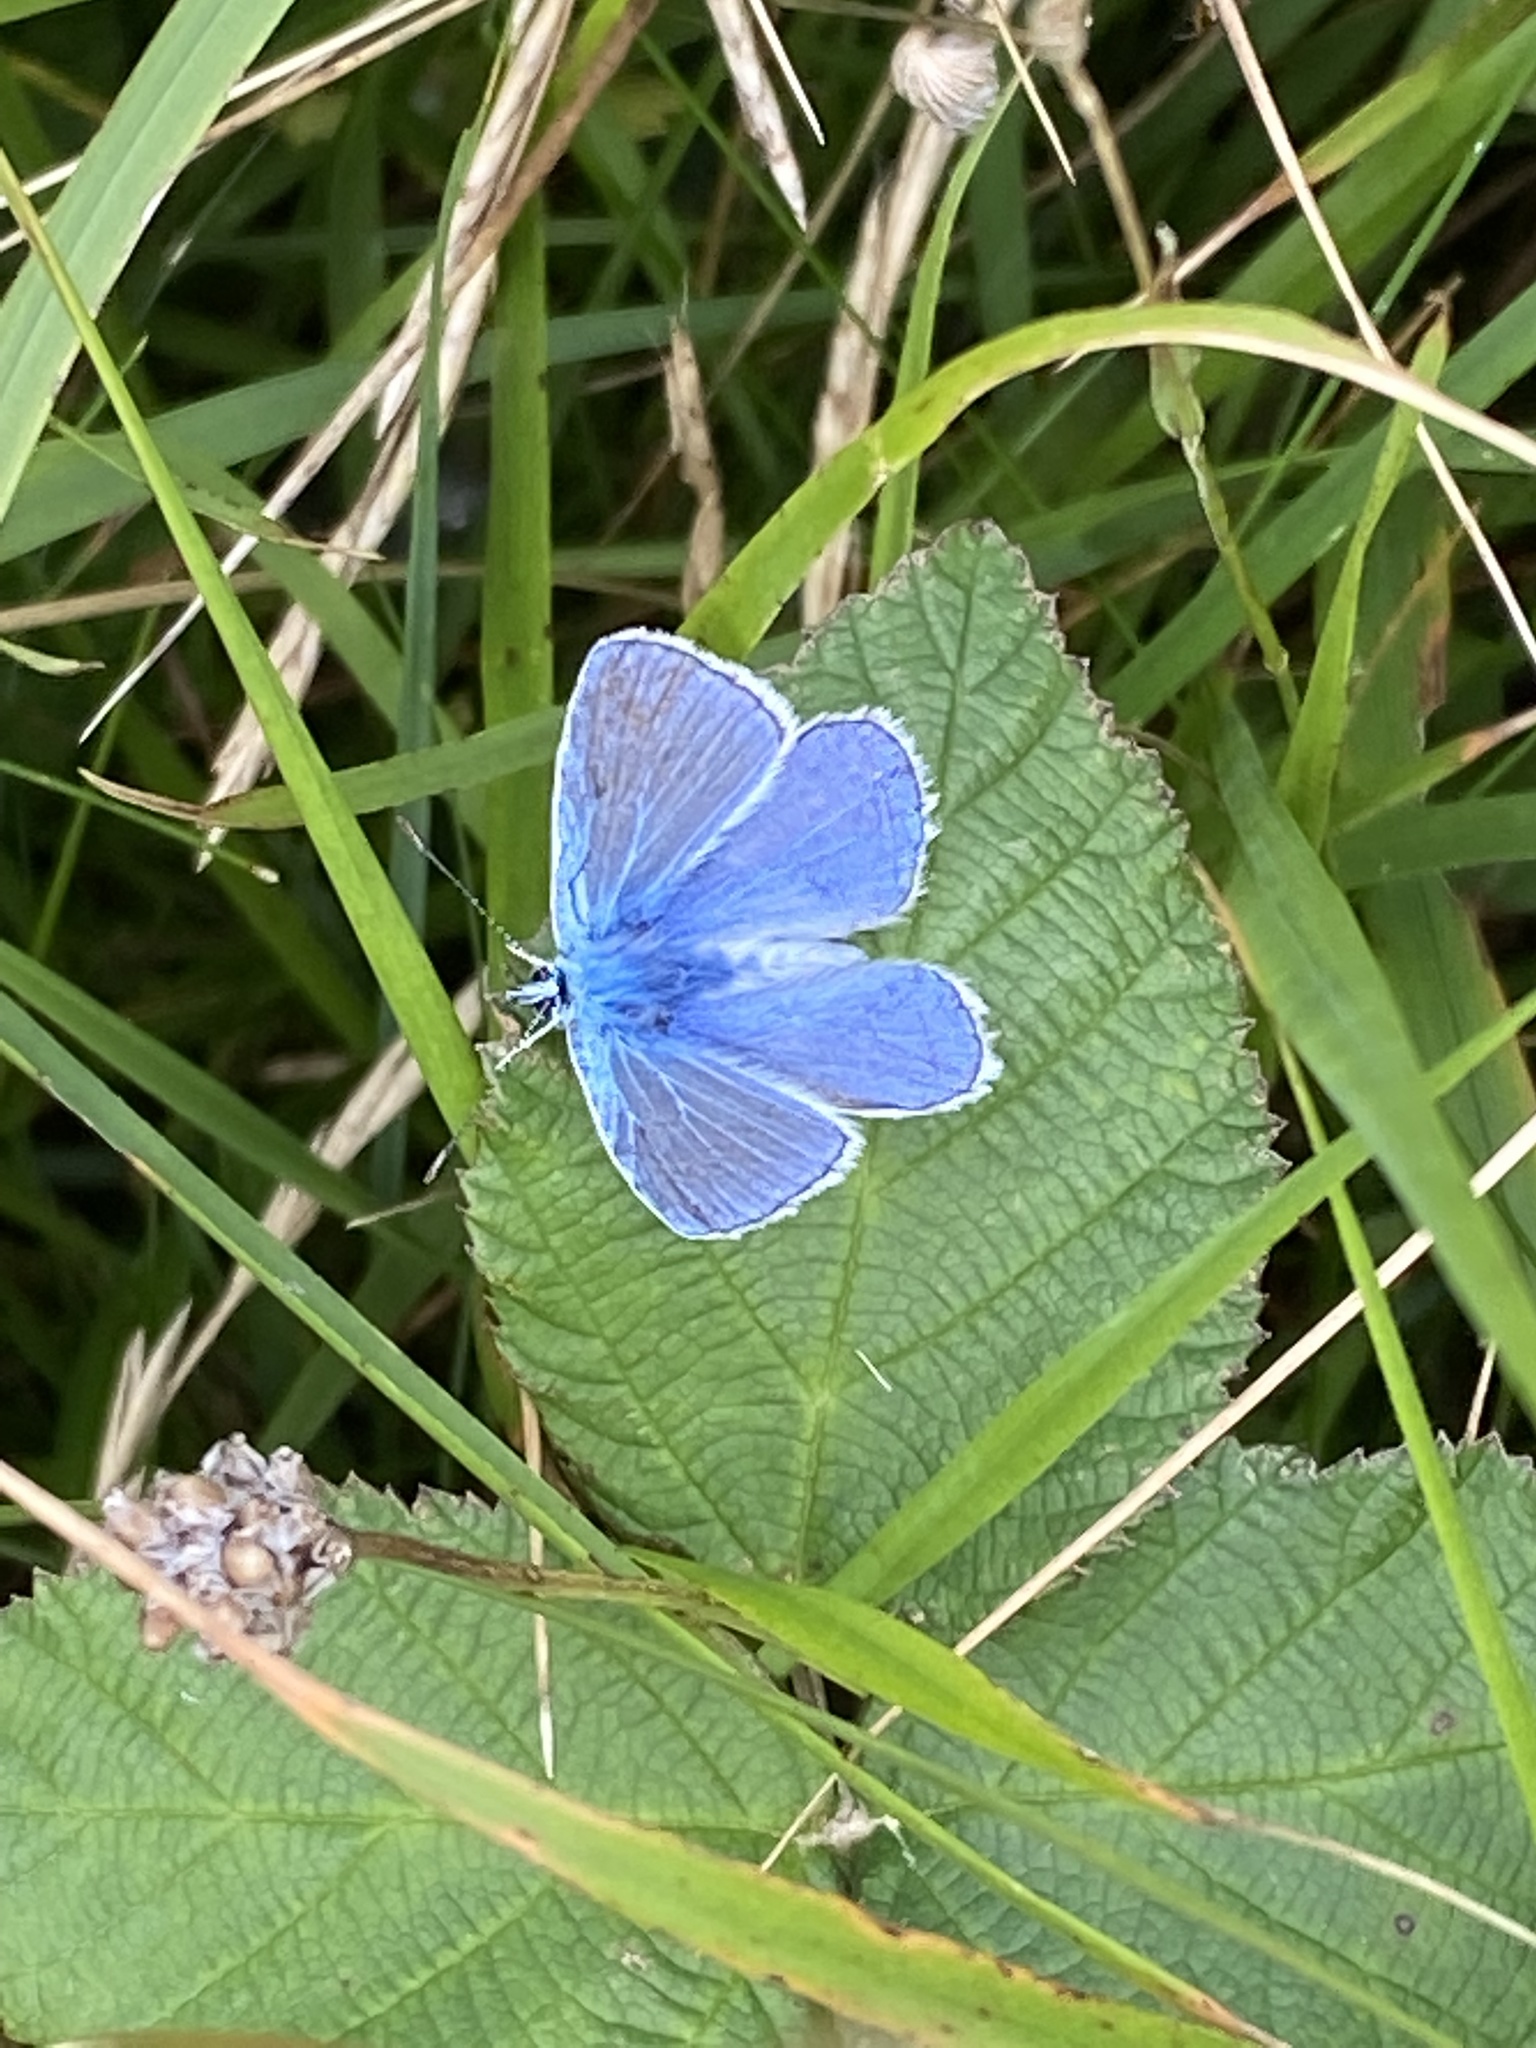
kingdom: Animalia
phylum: Arthropoda
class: Insecta
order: Lepidoptera
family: Lycaenidae
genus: Polyommatus
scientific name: Polyommatus icarus
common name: Common blue
